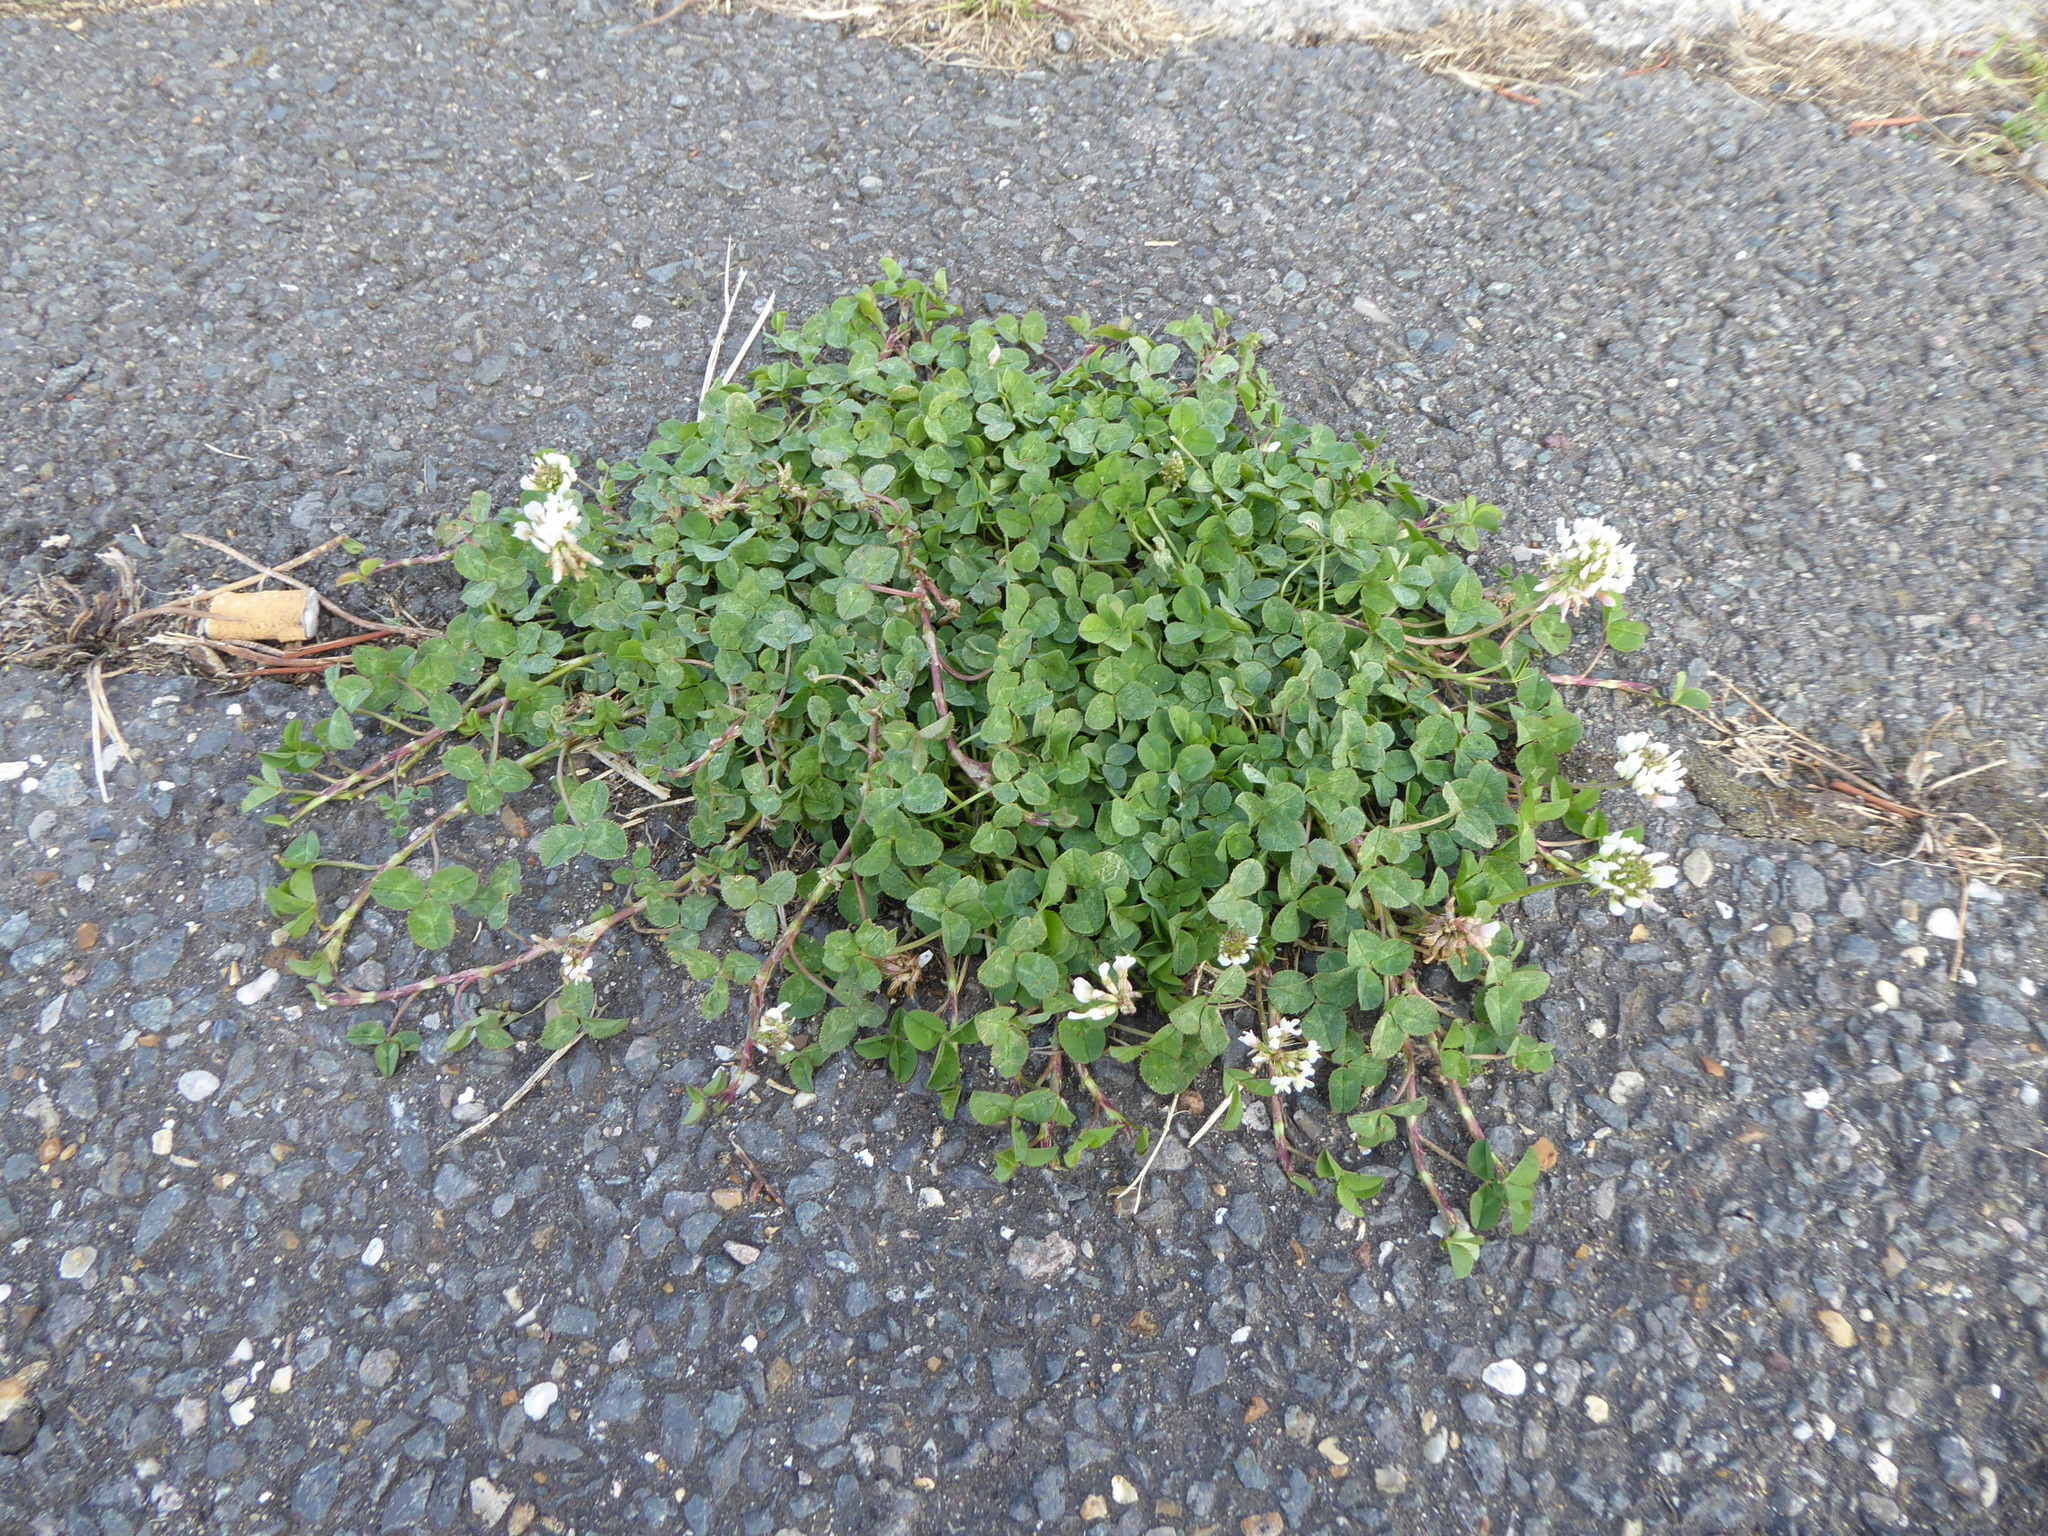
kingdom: Plantae
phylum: Tracheophyta
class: Magnoliopsida
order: Fabales
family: Fabaceae
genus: Trifolium
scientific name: Trifolium repens
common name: White clover
